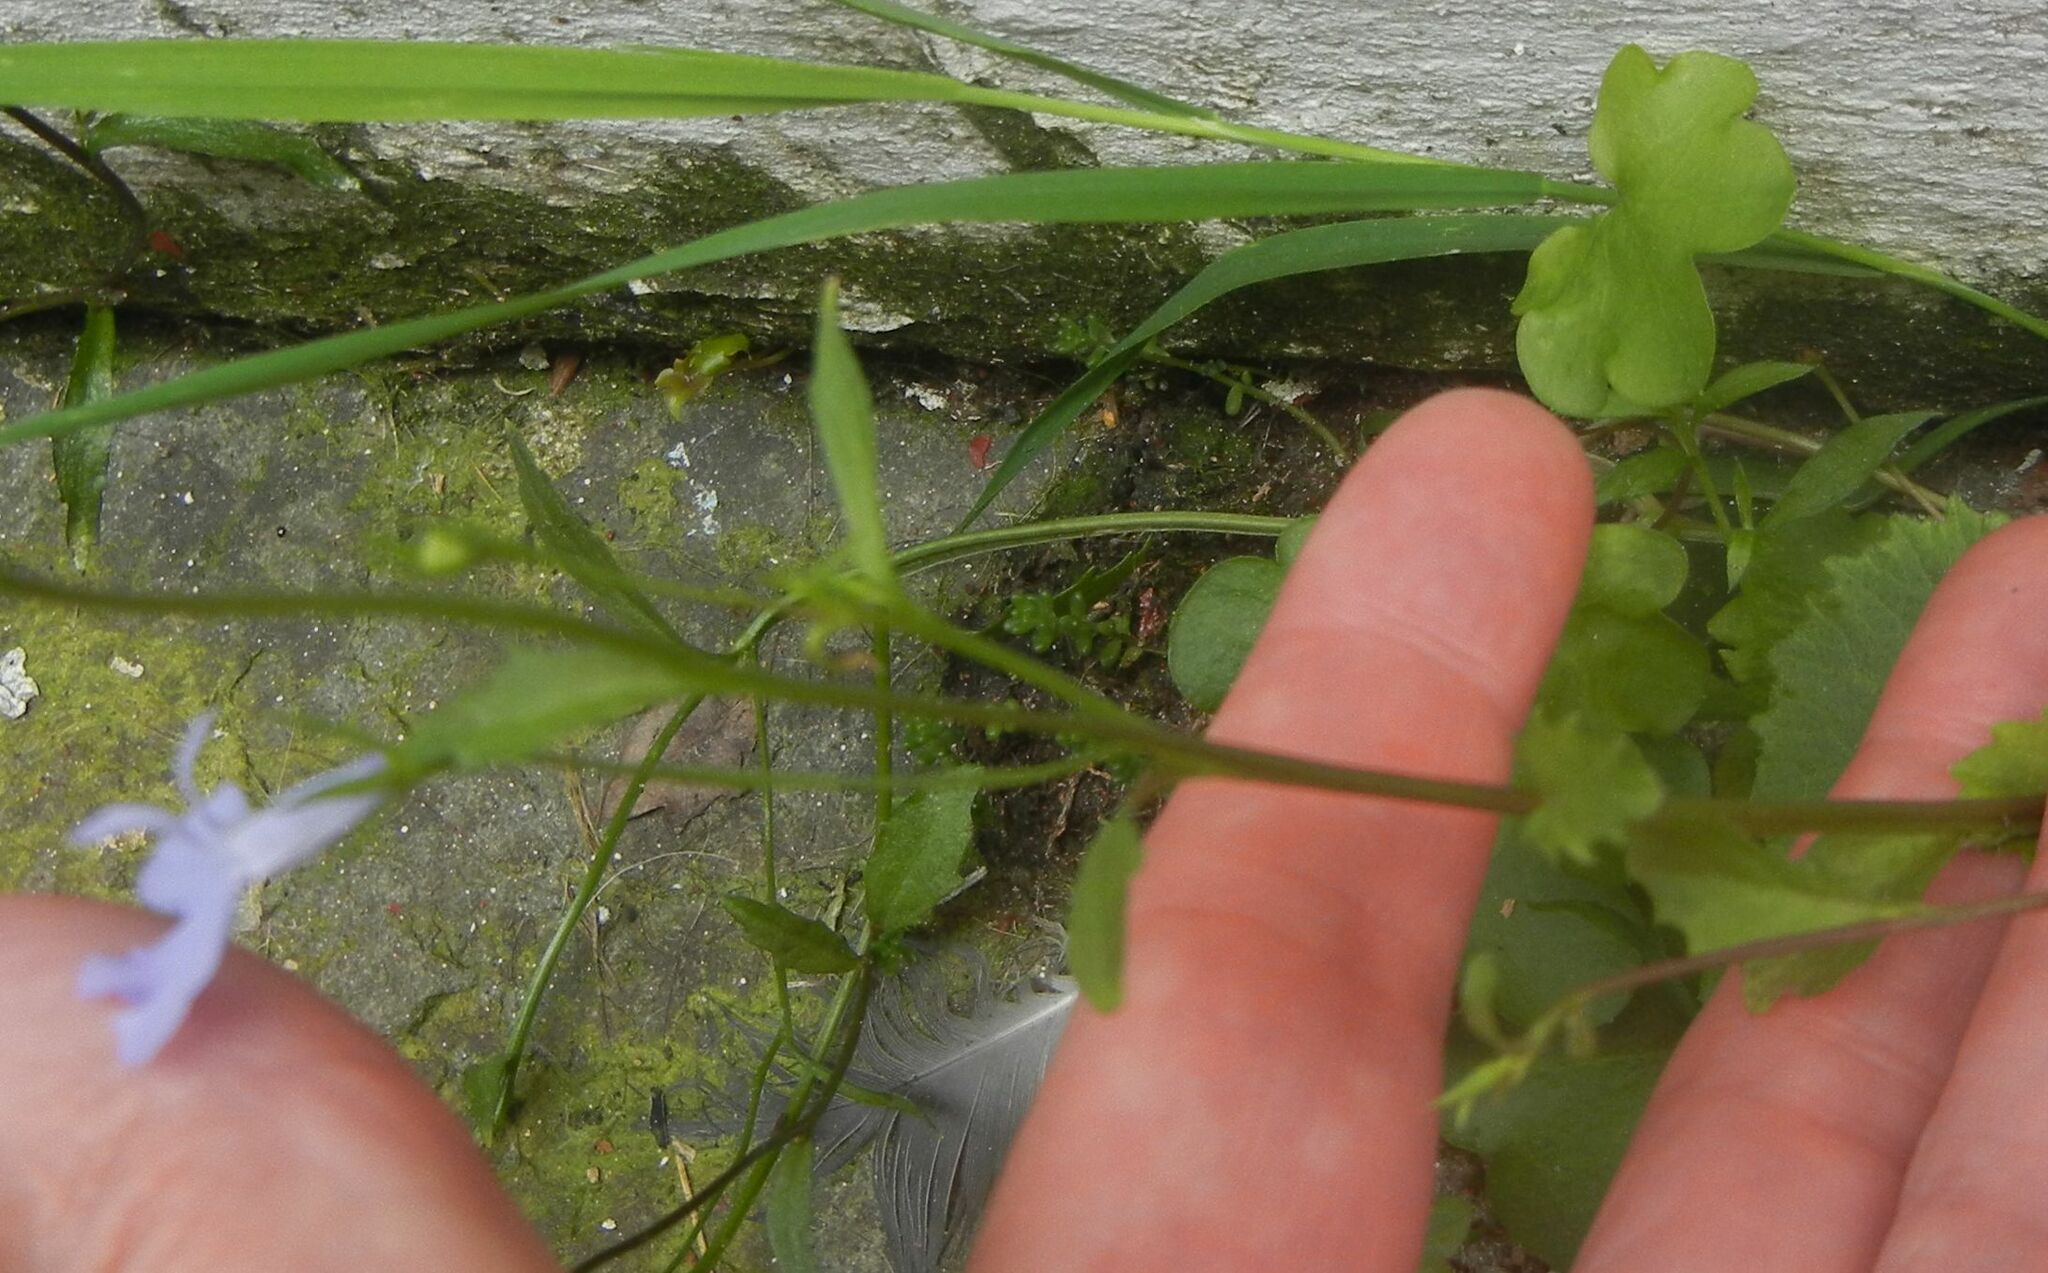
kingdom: Plantae
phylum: Tracheophyta
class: Magnoliopsida
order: Asterales
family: Campanulaceae
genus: Lobelia
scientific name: Lobelia erinus
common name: Edging lobelia
